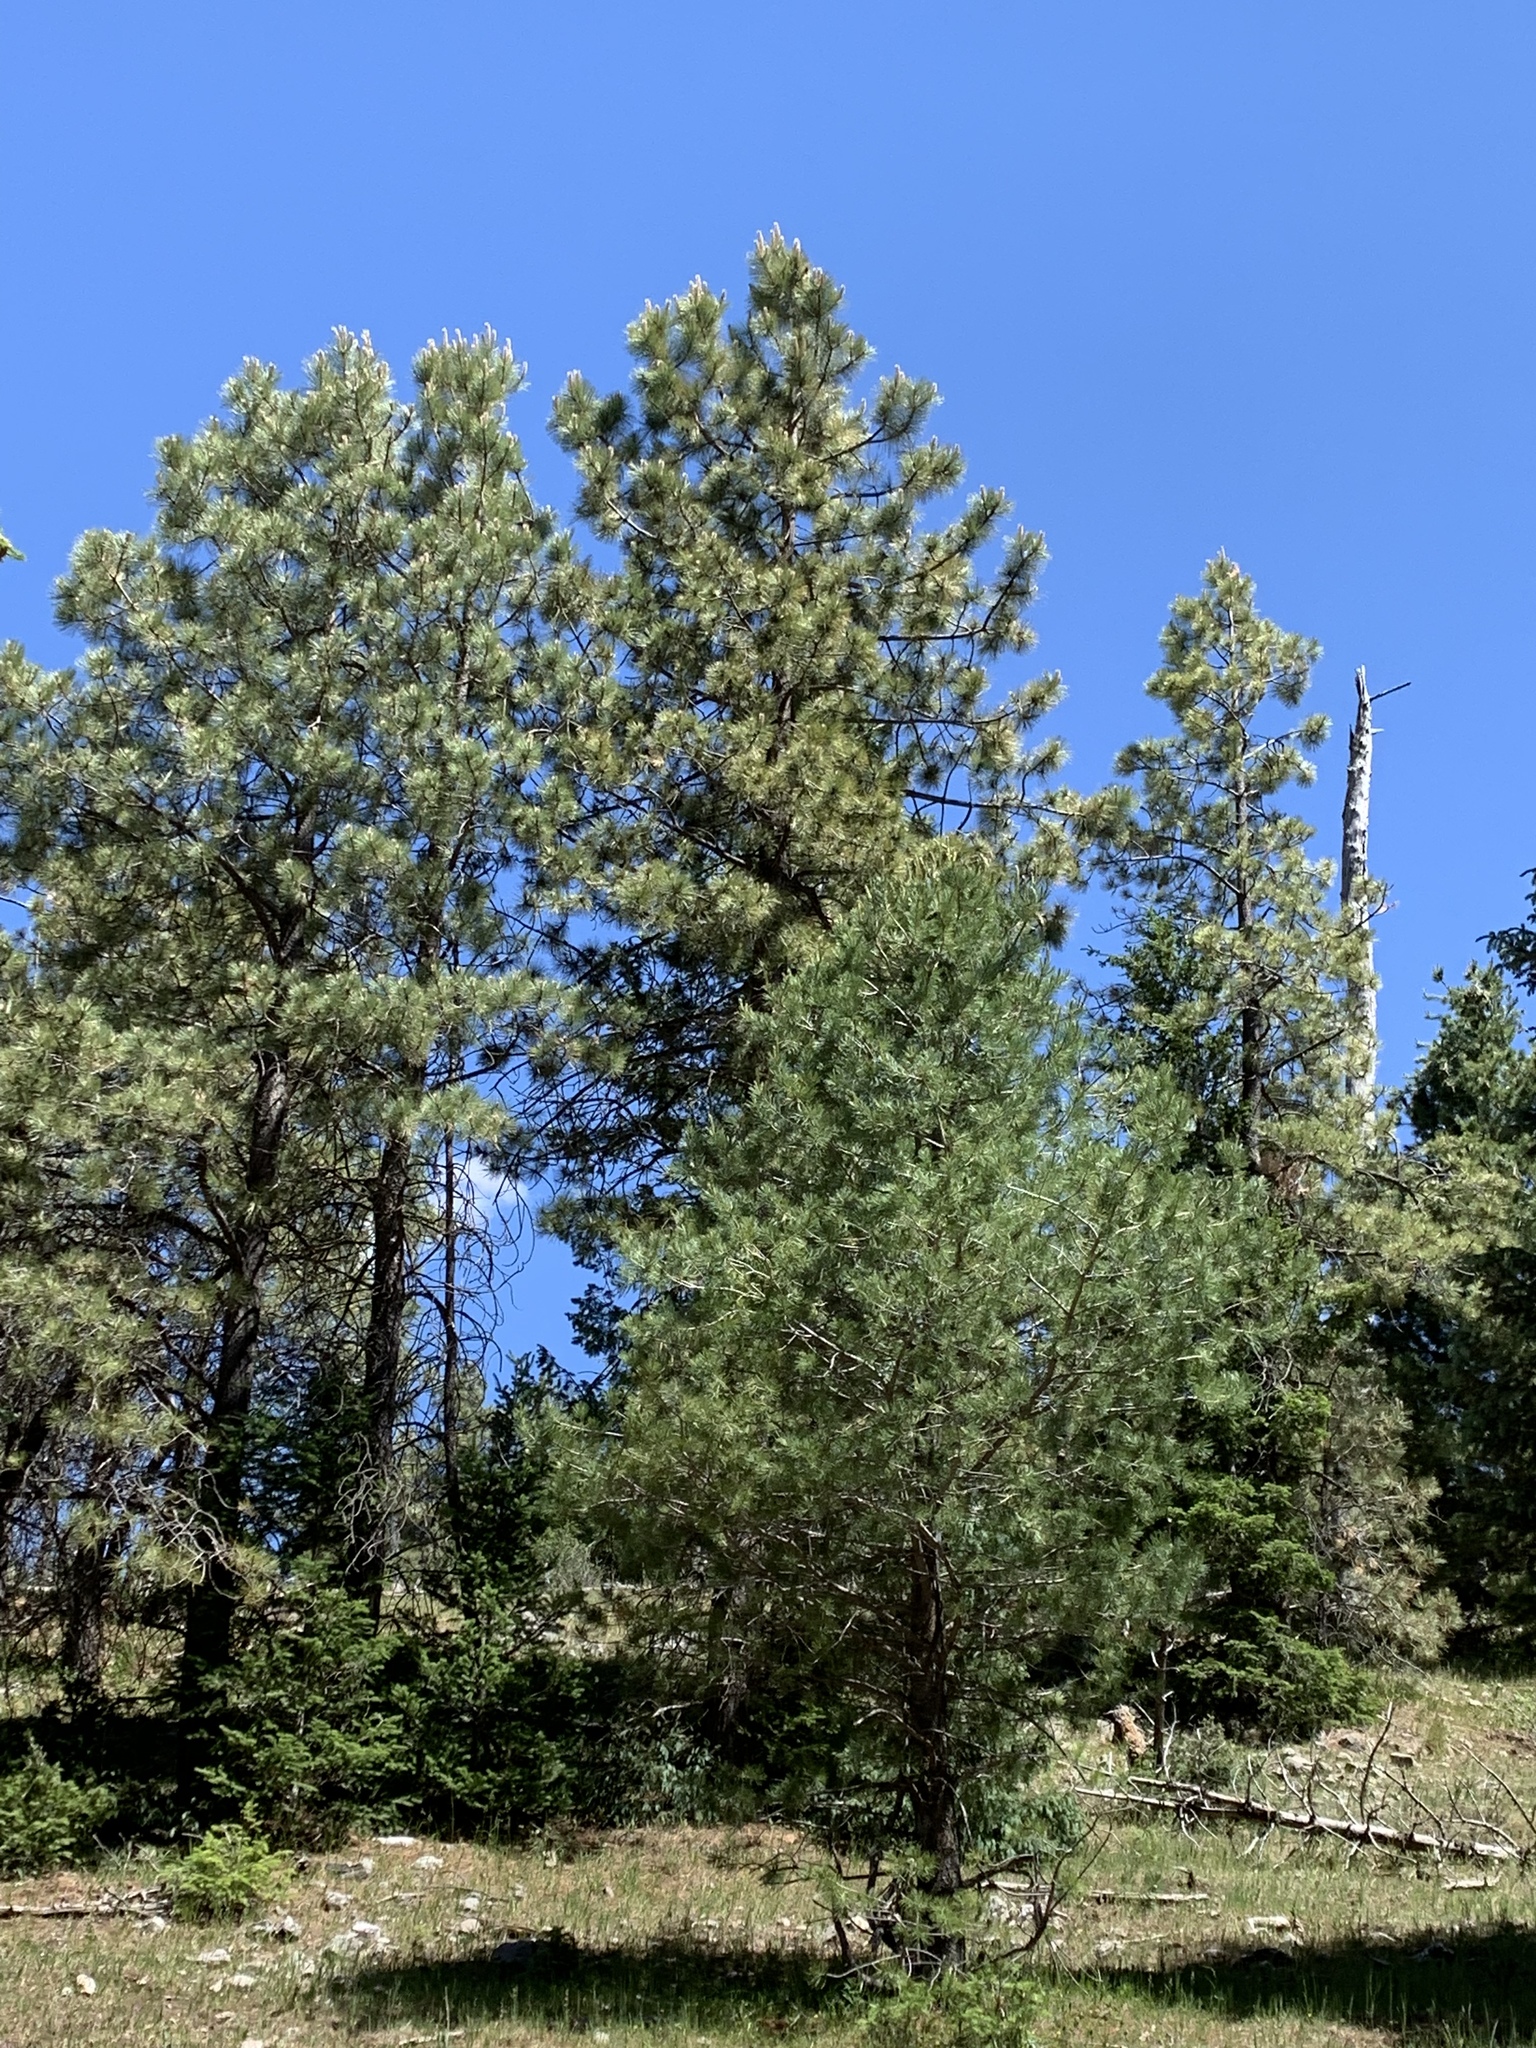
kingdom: Plantae
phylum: Tracheophyta
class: Pinopsida
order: Pinales
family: Pinaceae
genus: Pinus
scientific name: Pinus ponderosa
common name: Western yellow-pine
